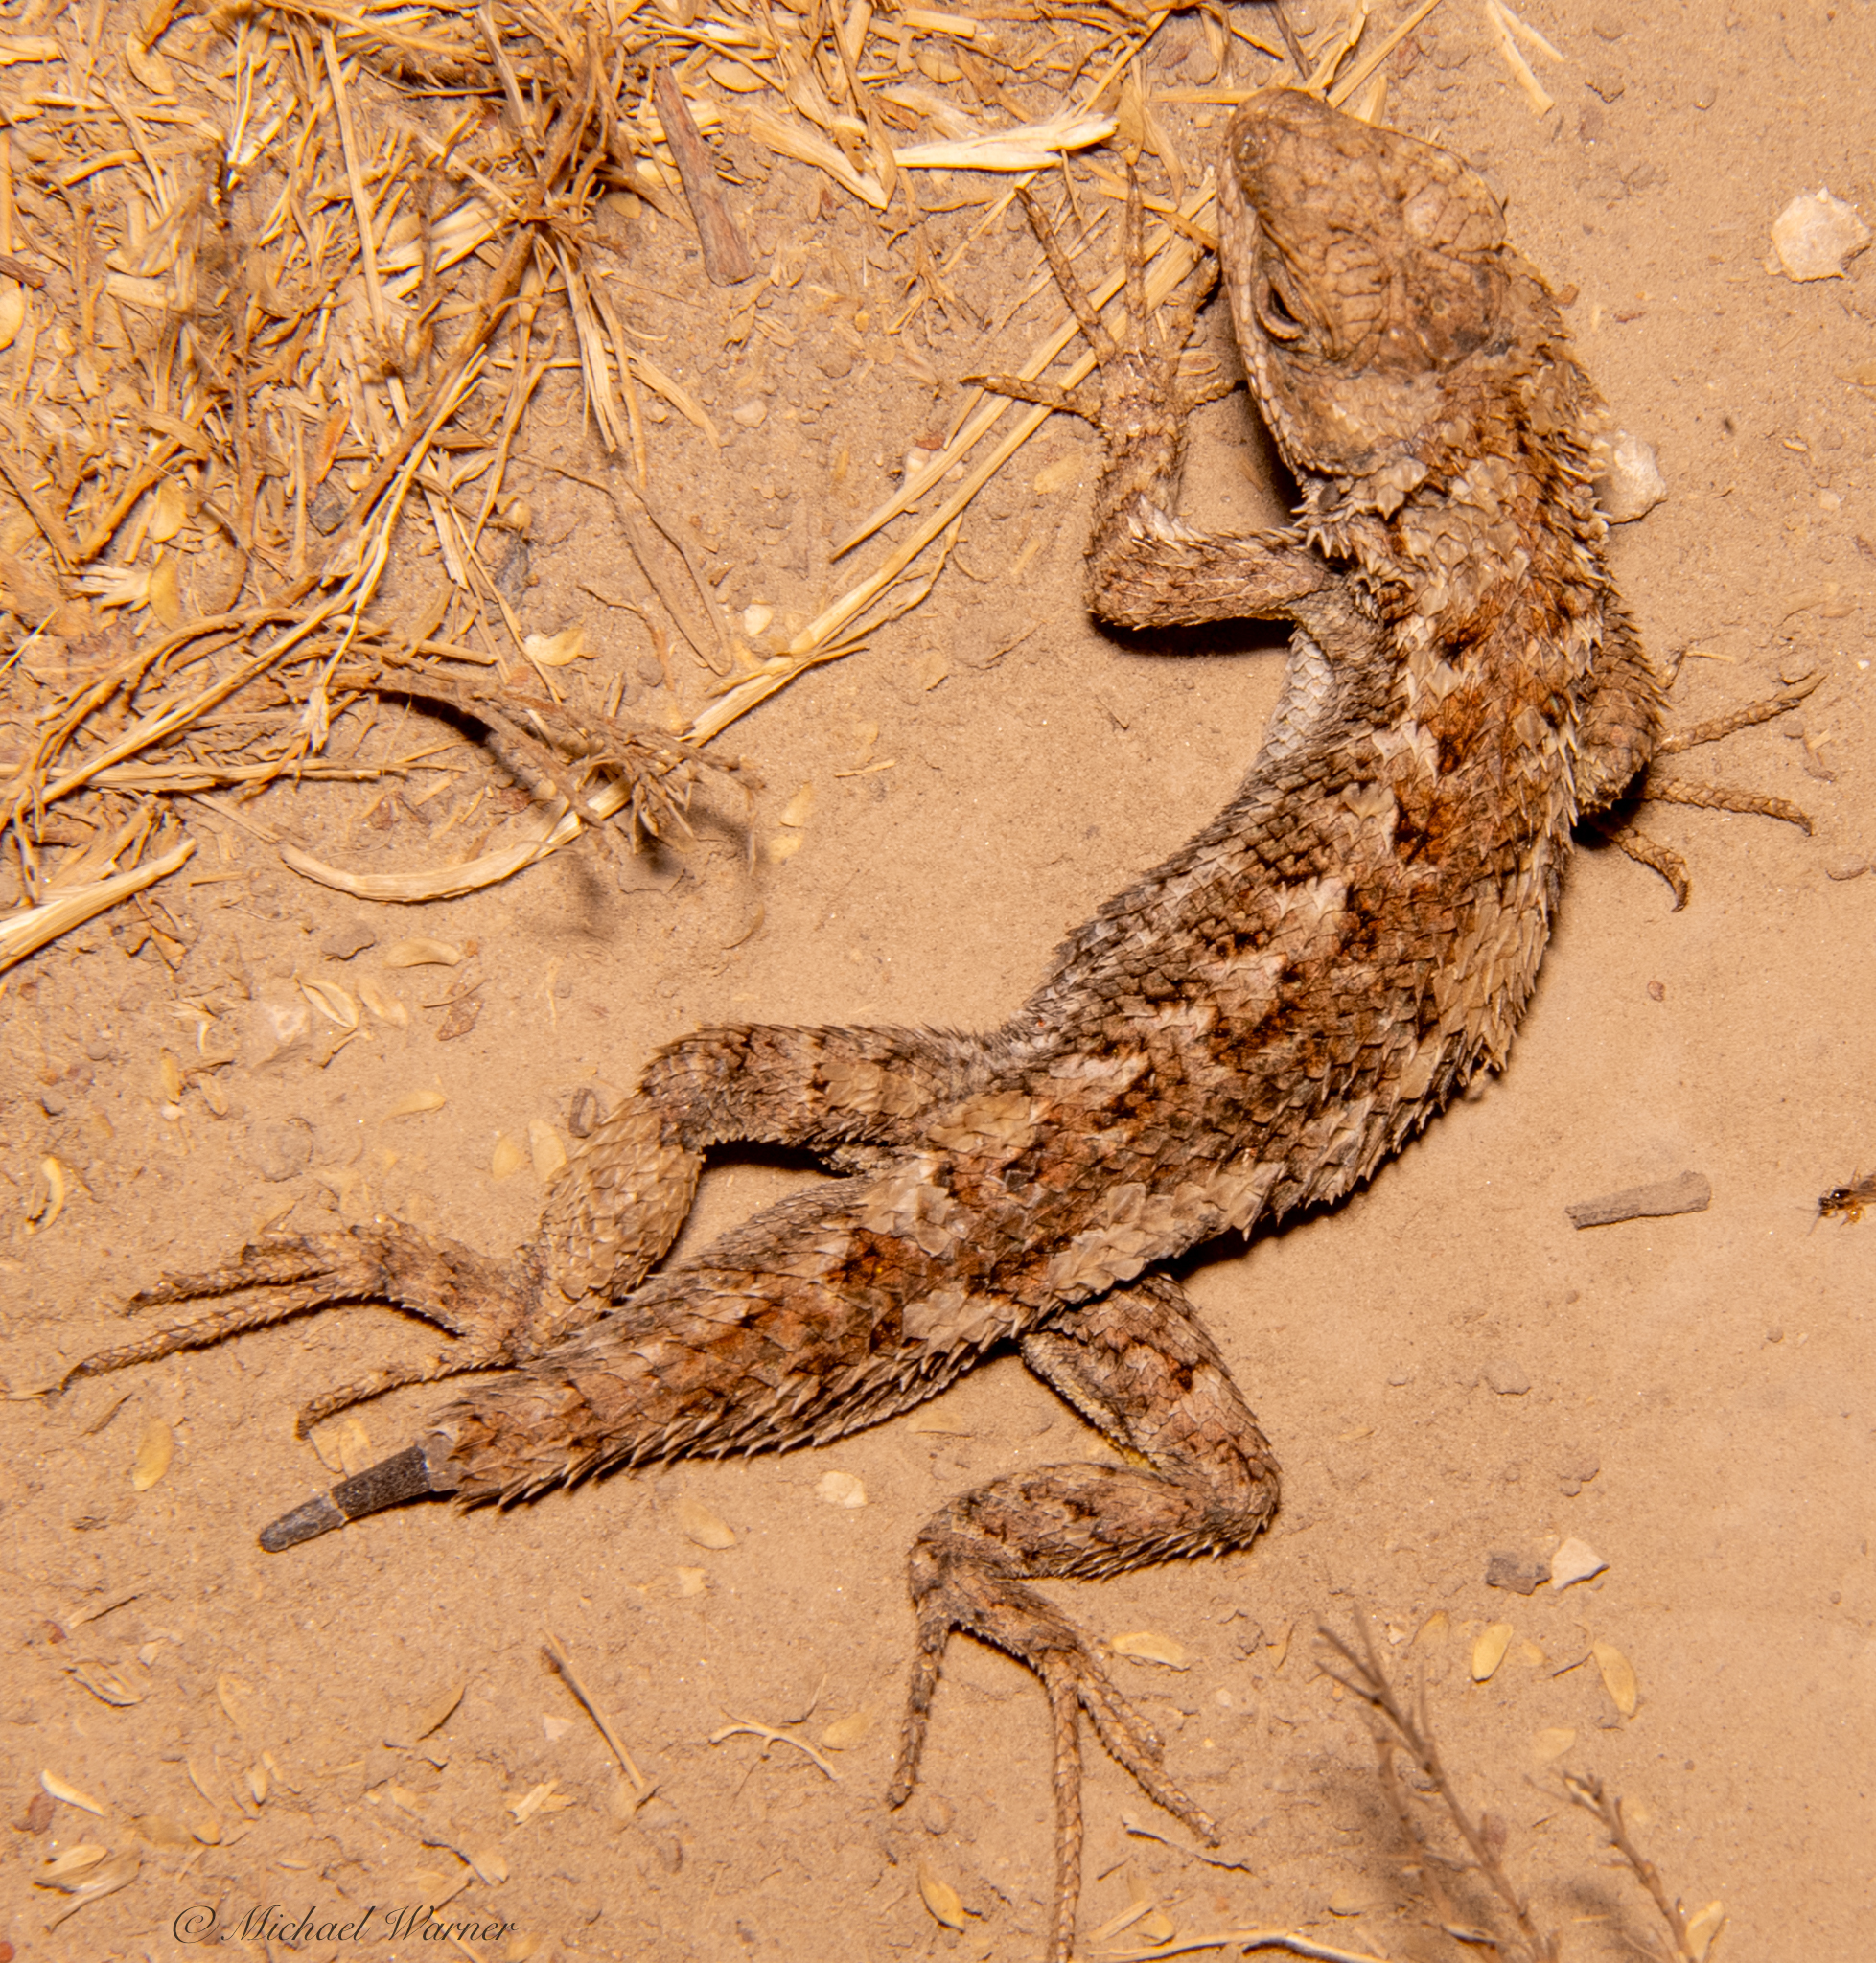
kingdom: Animalia
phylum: Chordata
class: Squamata
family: Phrynosomatidae
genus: Sceloporus
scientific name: Sceloporus occidentalis
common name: Western fence lizard
